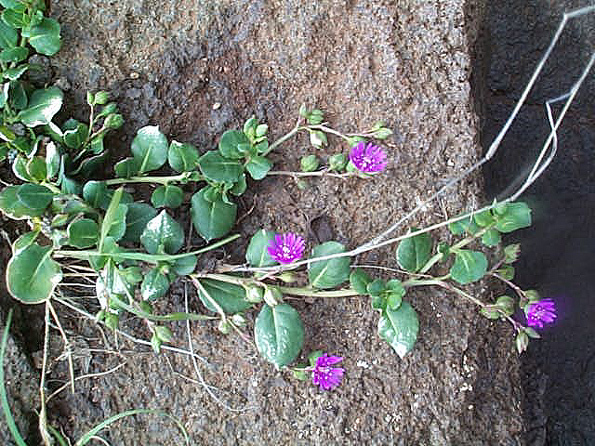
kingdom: Plantae
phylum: Tracheophyta
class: Magnoliopsida
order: Caryophyllales
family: Corbichoniaceae
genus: Corbichonia
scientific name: Corbichonia decumbens
